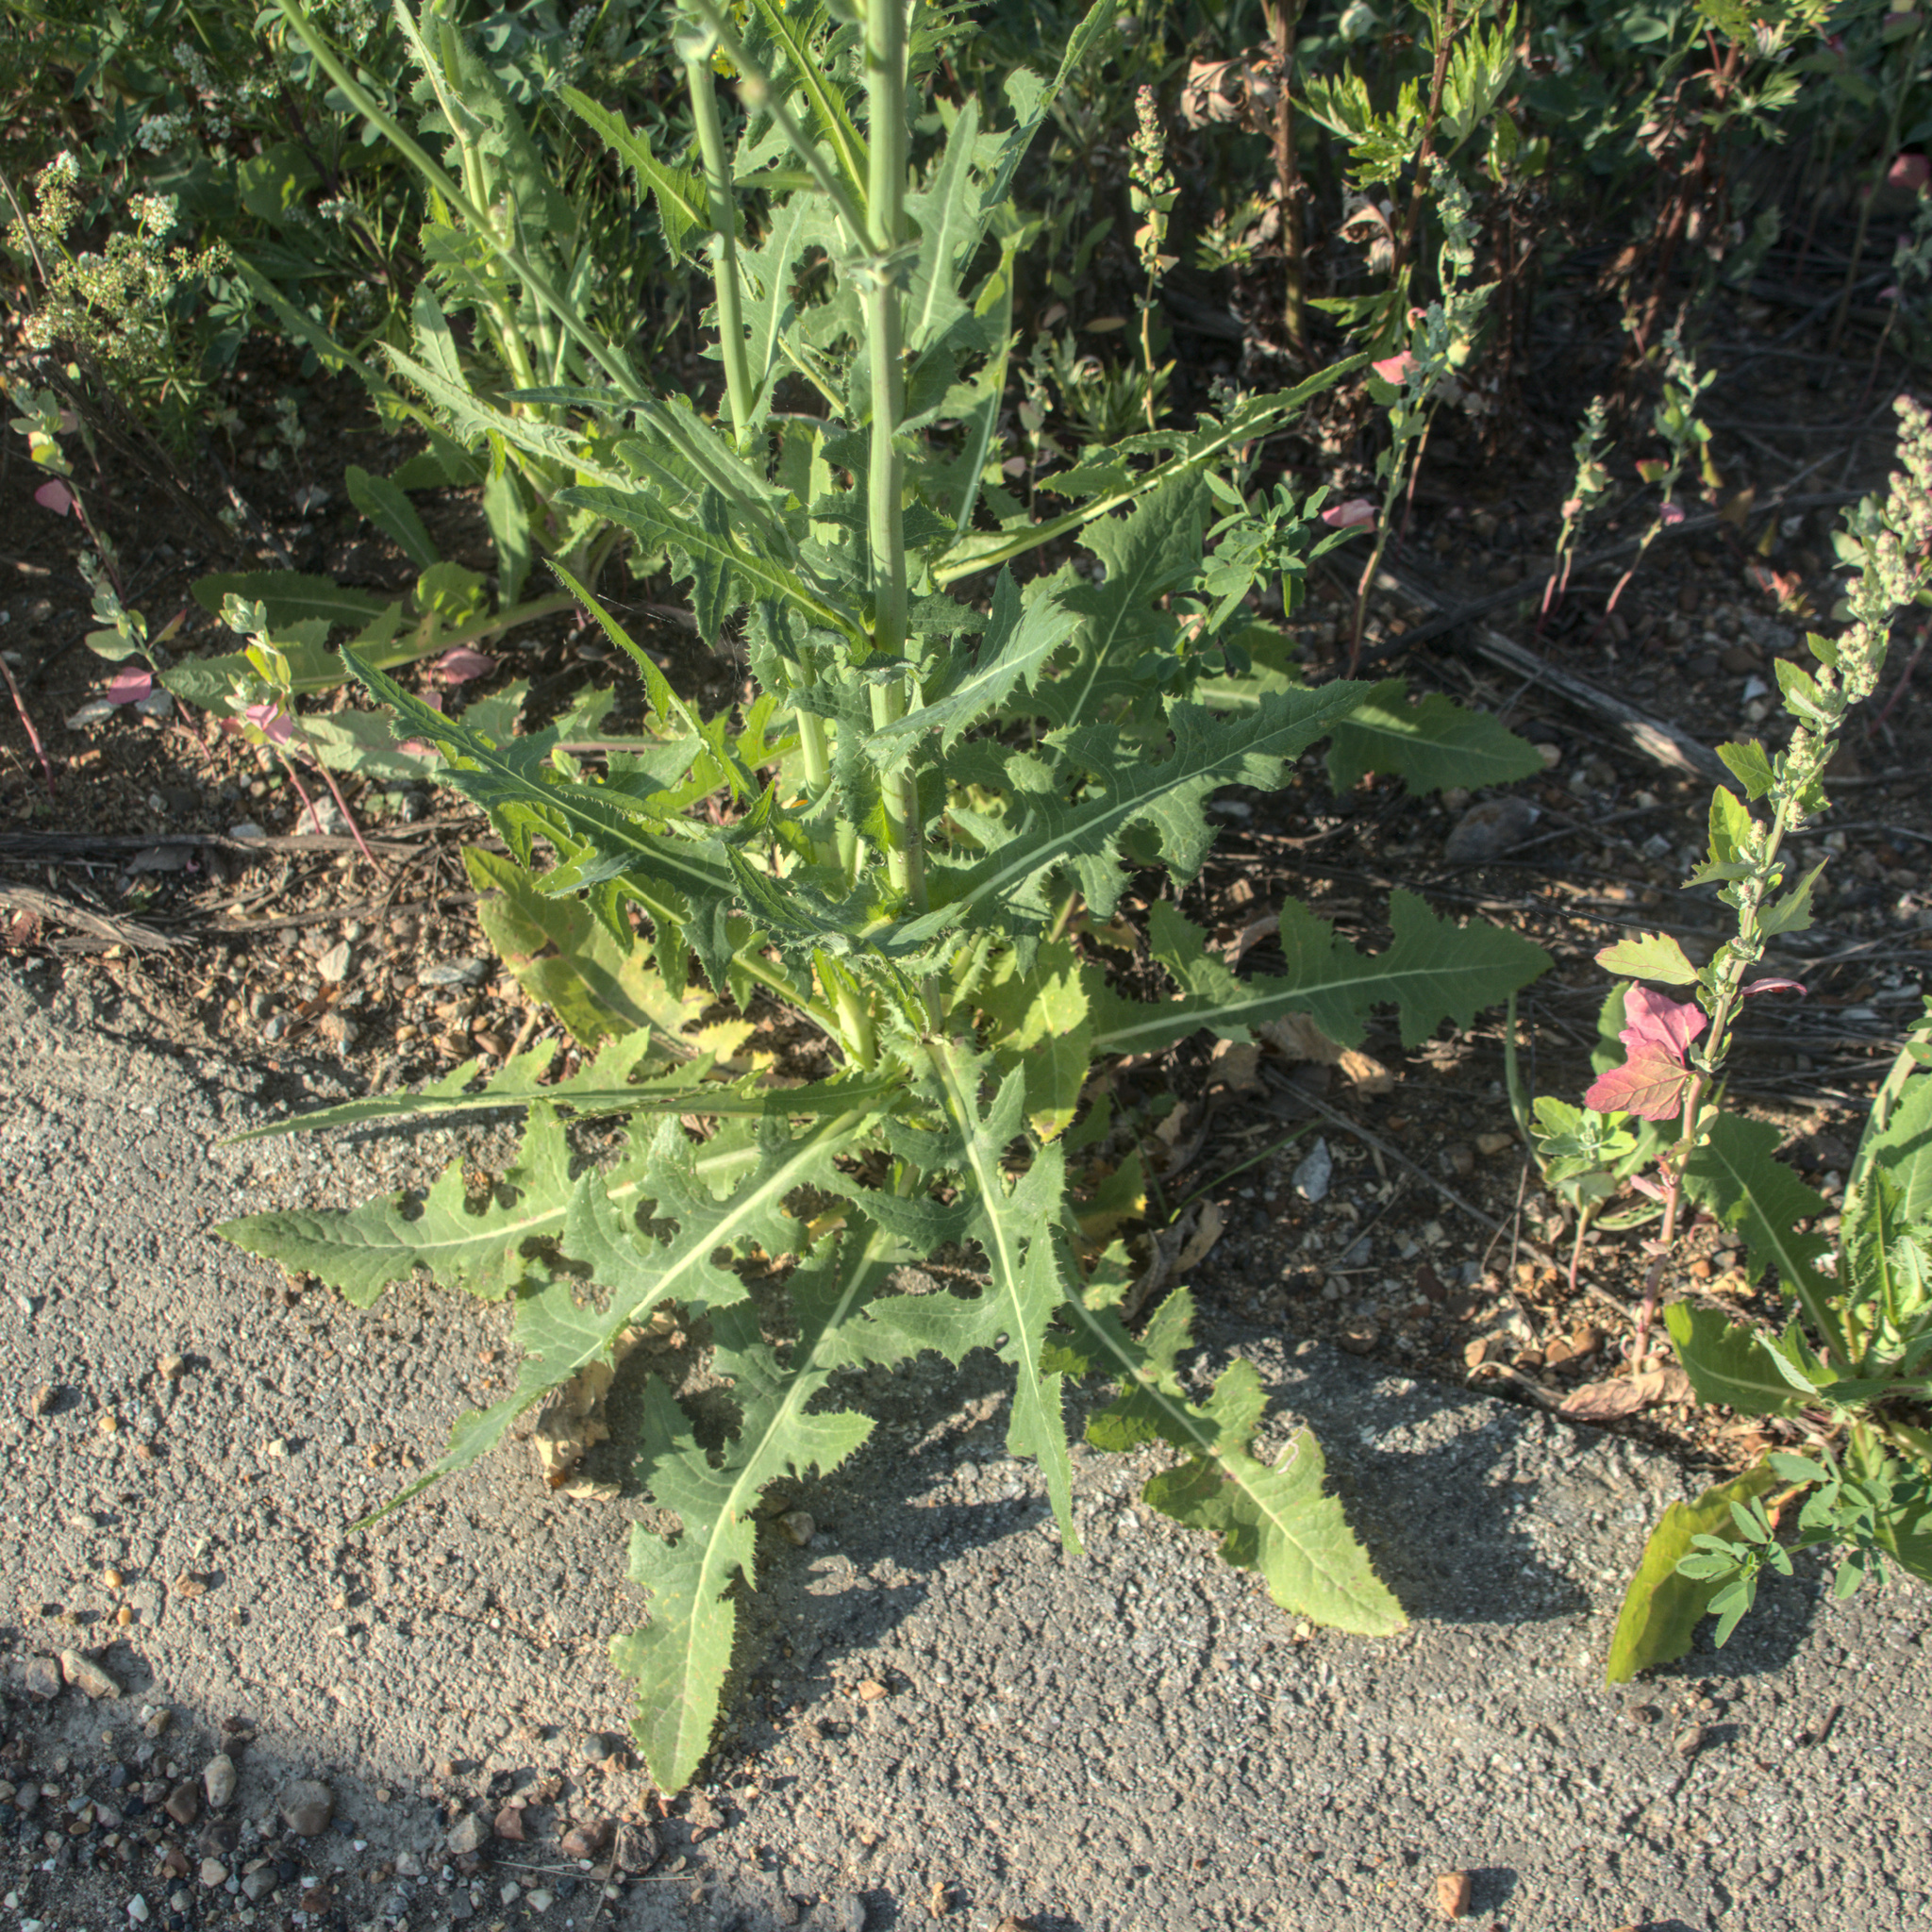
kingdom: Plantae
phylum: Tracheophyta
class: Magnoliopsida
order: Asterales
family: Asteraceae
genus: Sonchus
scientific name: Sonchus arvensis
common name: Perennial sow-thistle
